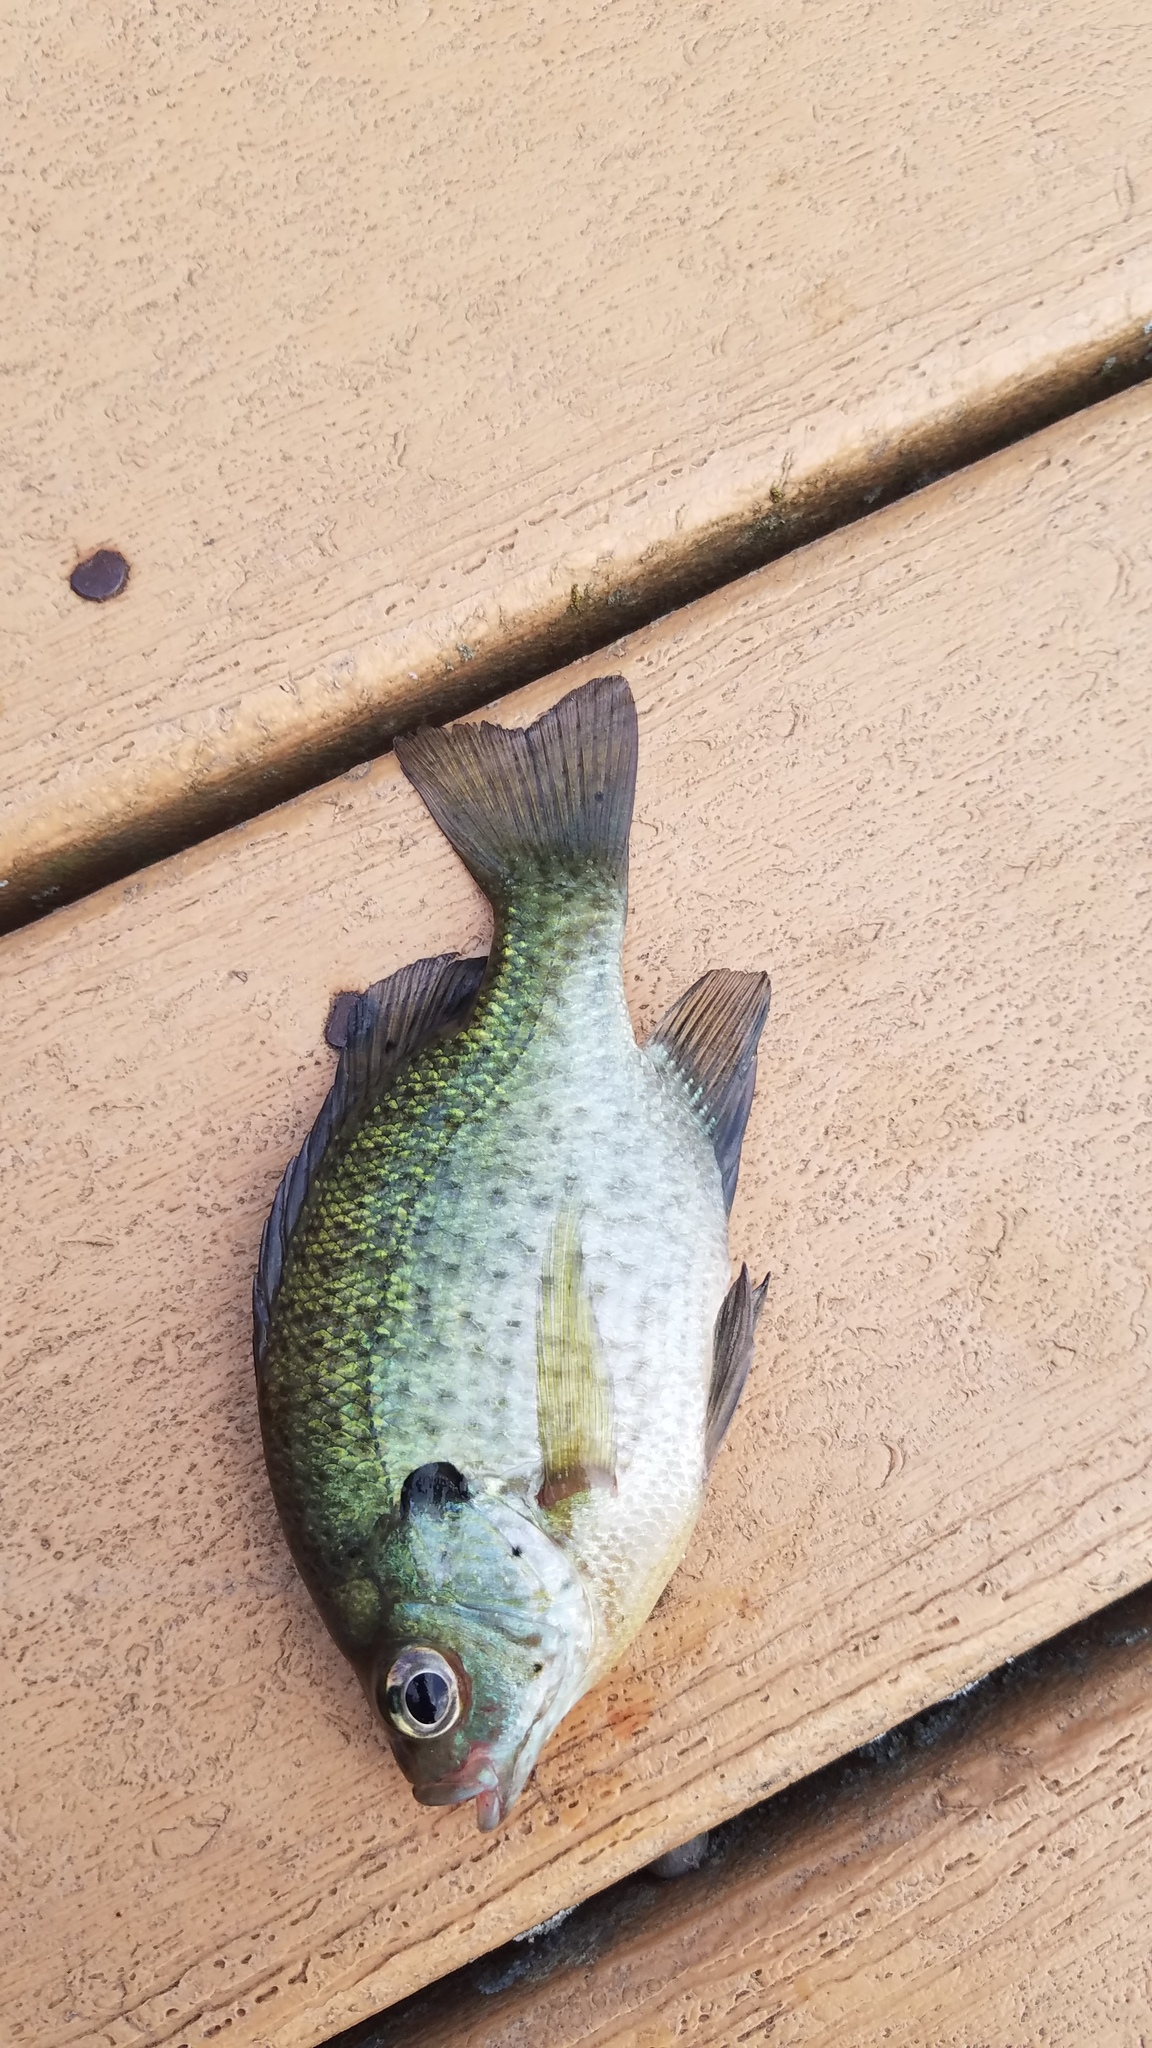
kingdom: Animalia
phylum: Chordata
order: Perciformes
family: Centrarchidae
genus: Lepomis
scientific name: Lepomis macrochirus
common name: Bluegill
